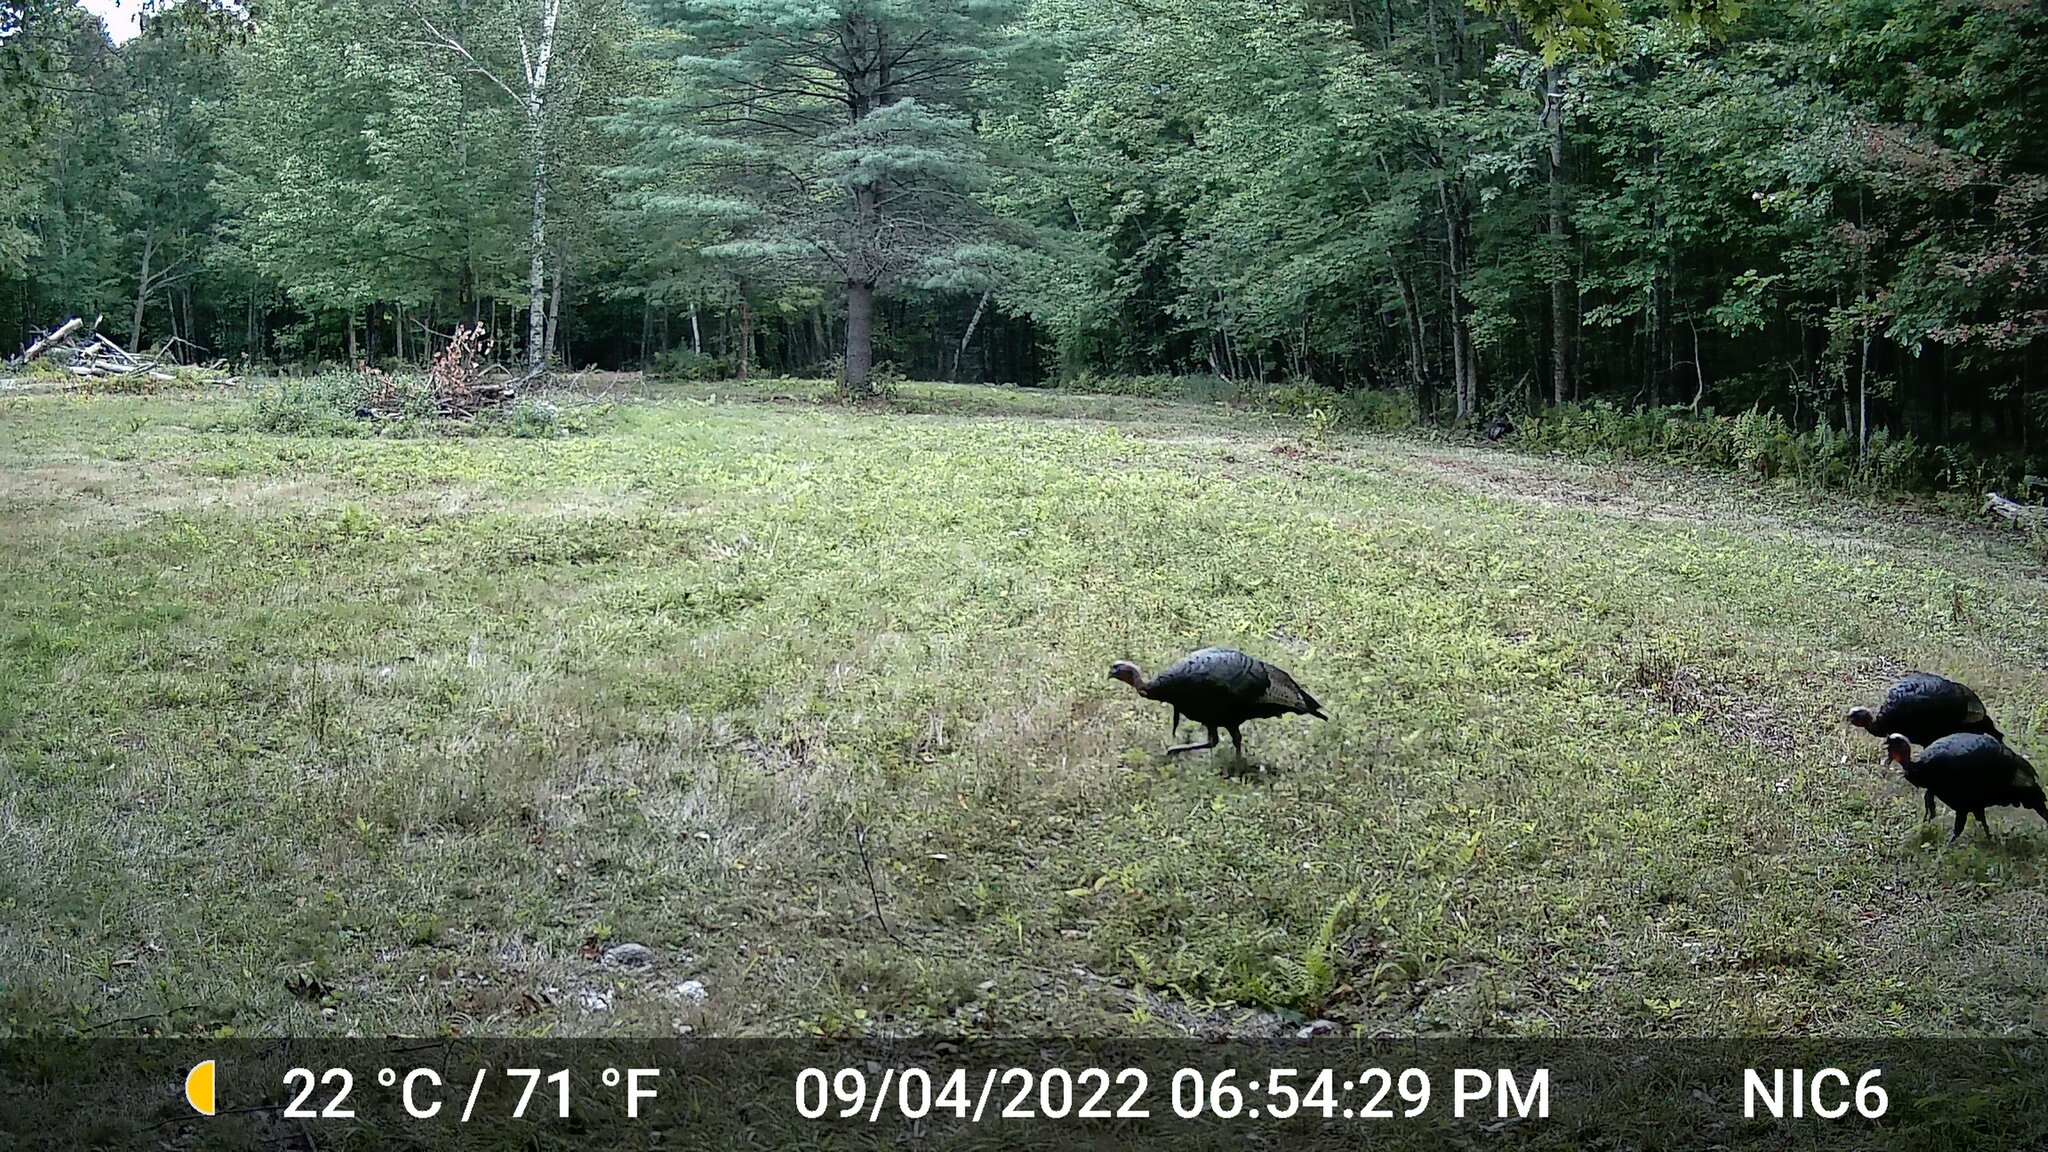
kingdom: Animalia
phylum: Chordata
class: Aves
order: Galliformes
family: Phasianidae
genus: Meleagris
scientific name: Meleagris gallopavo
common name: Wild turkey
